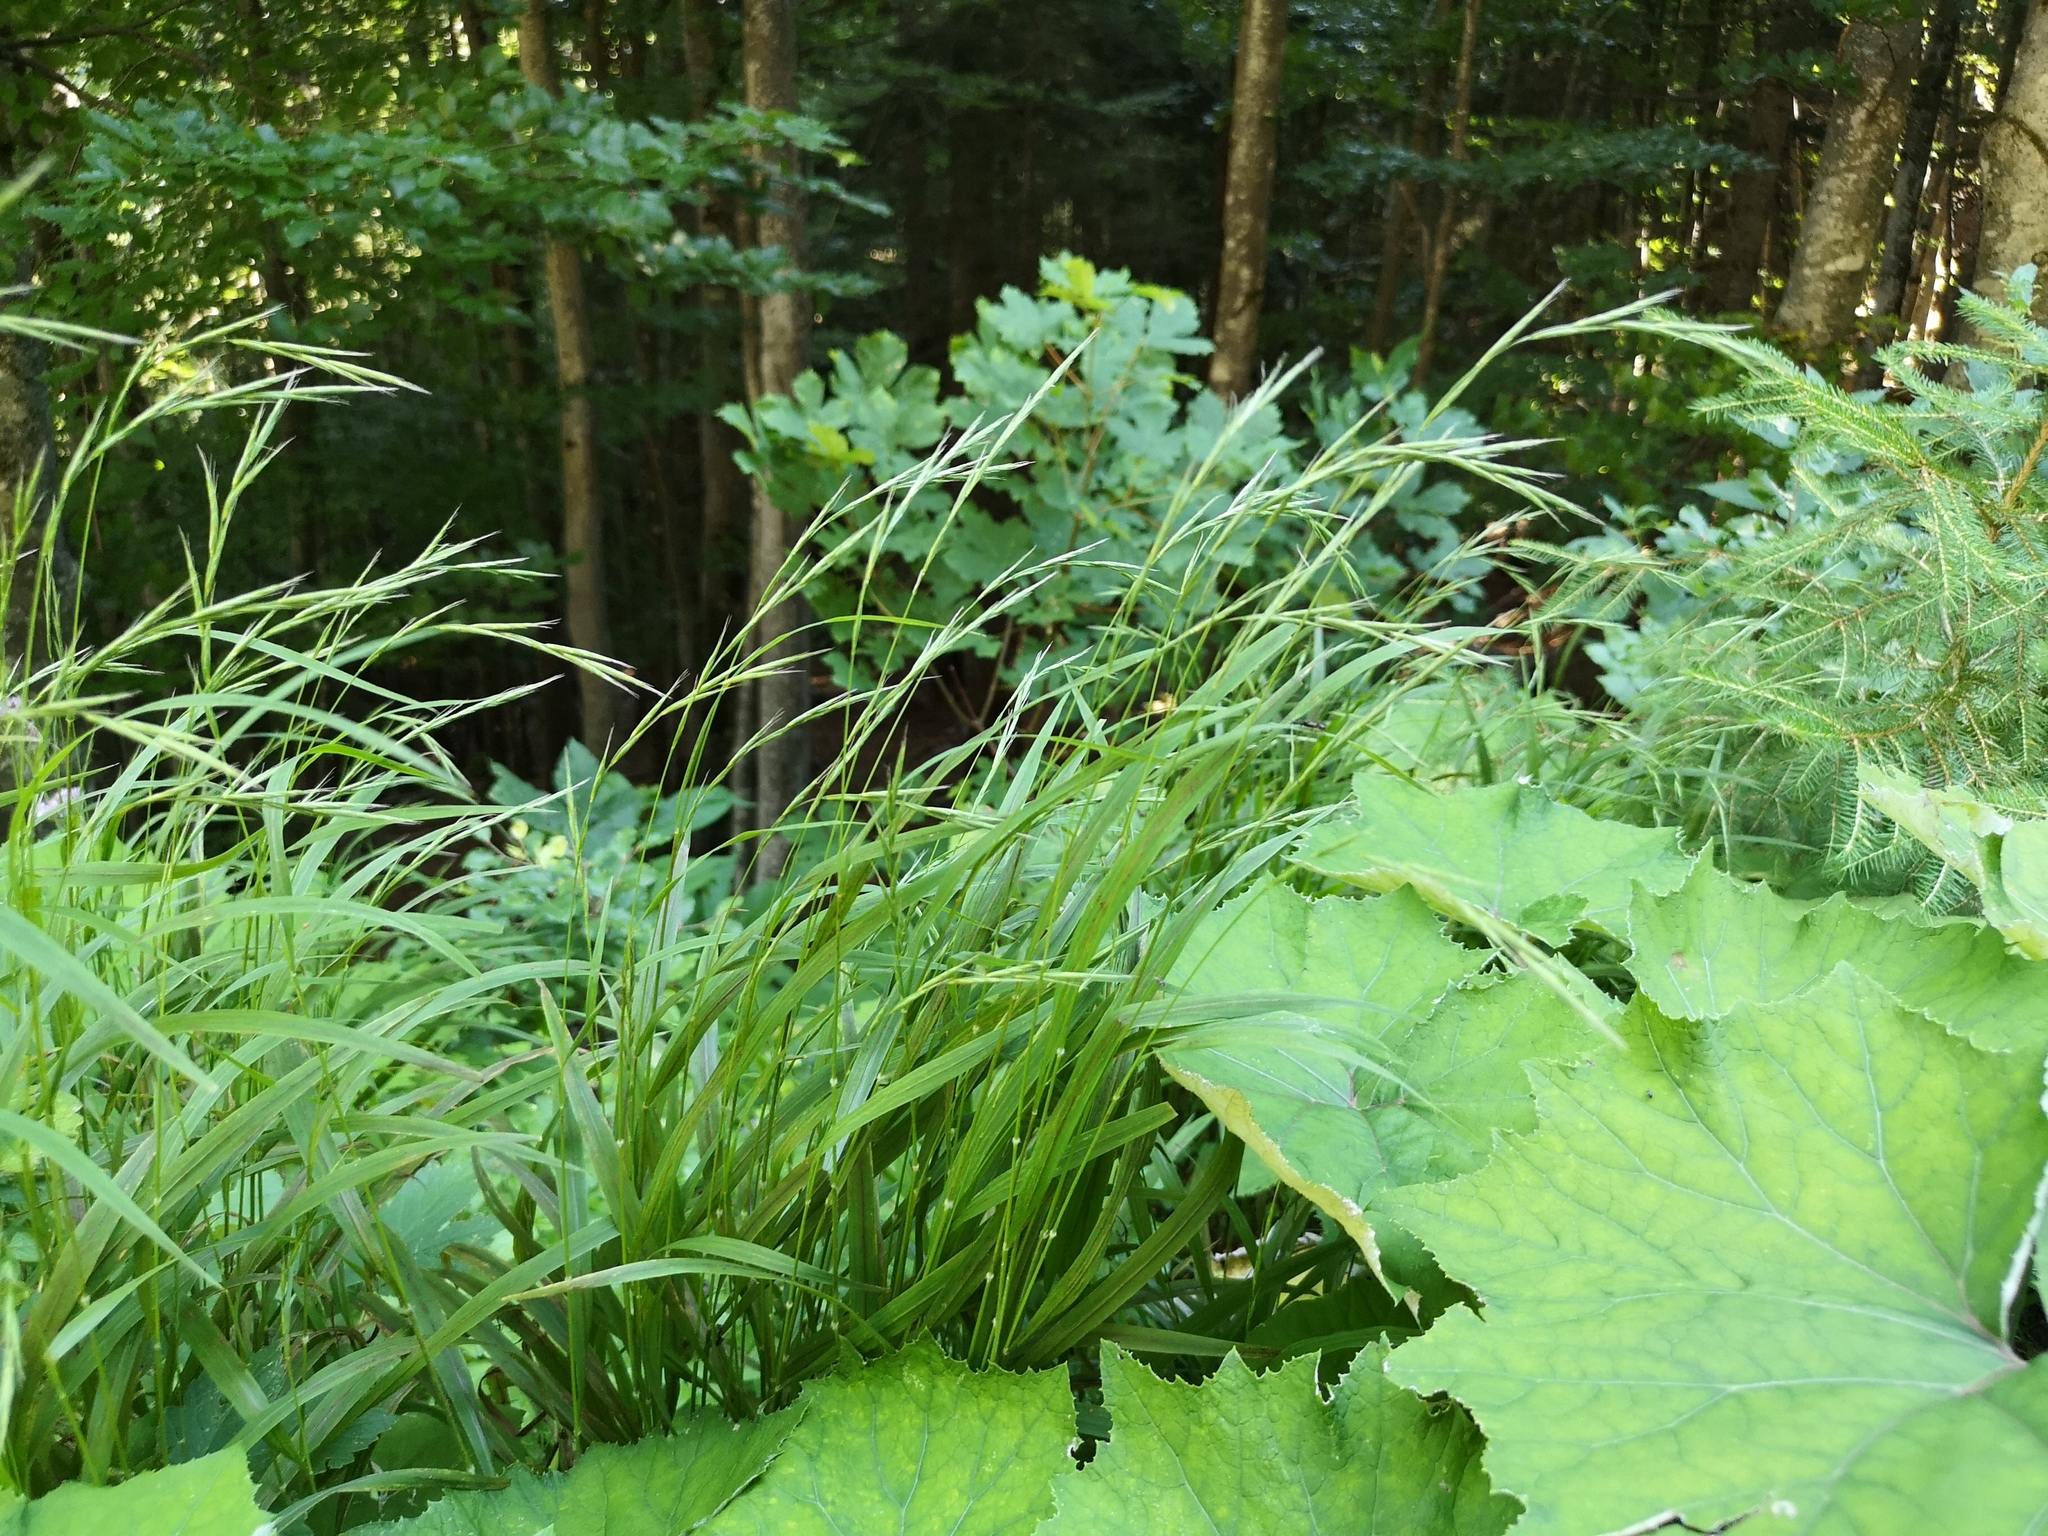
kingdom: Plantae
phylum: Tracheophyta
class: Liliopsida
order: Poales
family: Poaceae
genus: Brachypodium
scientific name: Brachypodium sylvaticum
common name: False-brome
